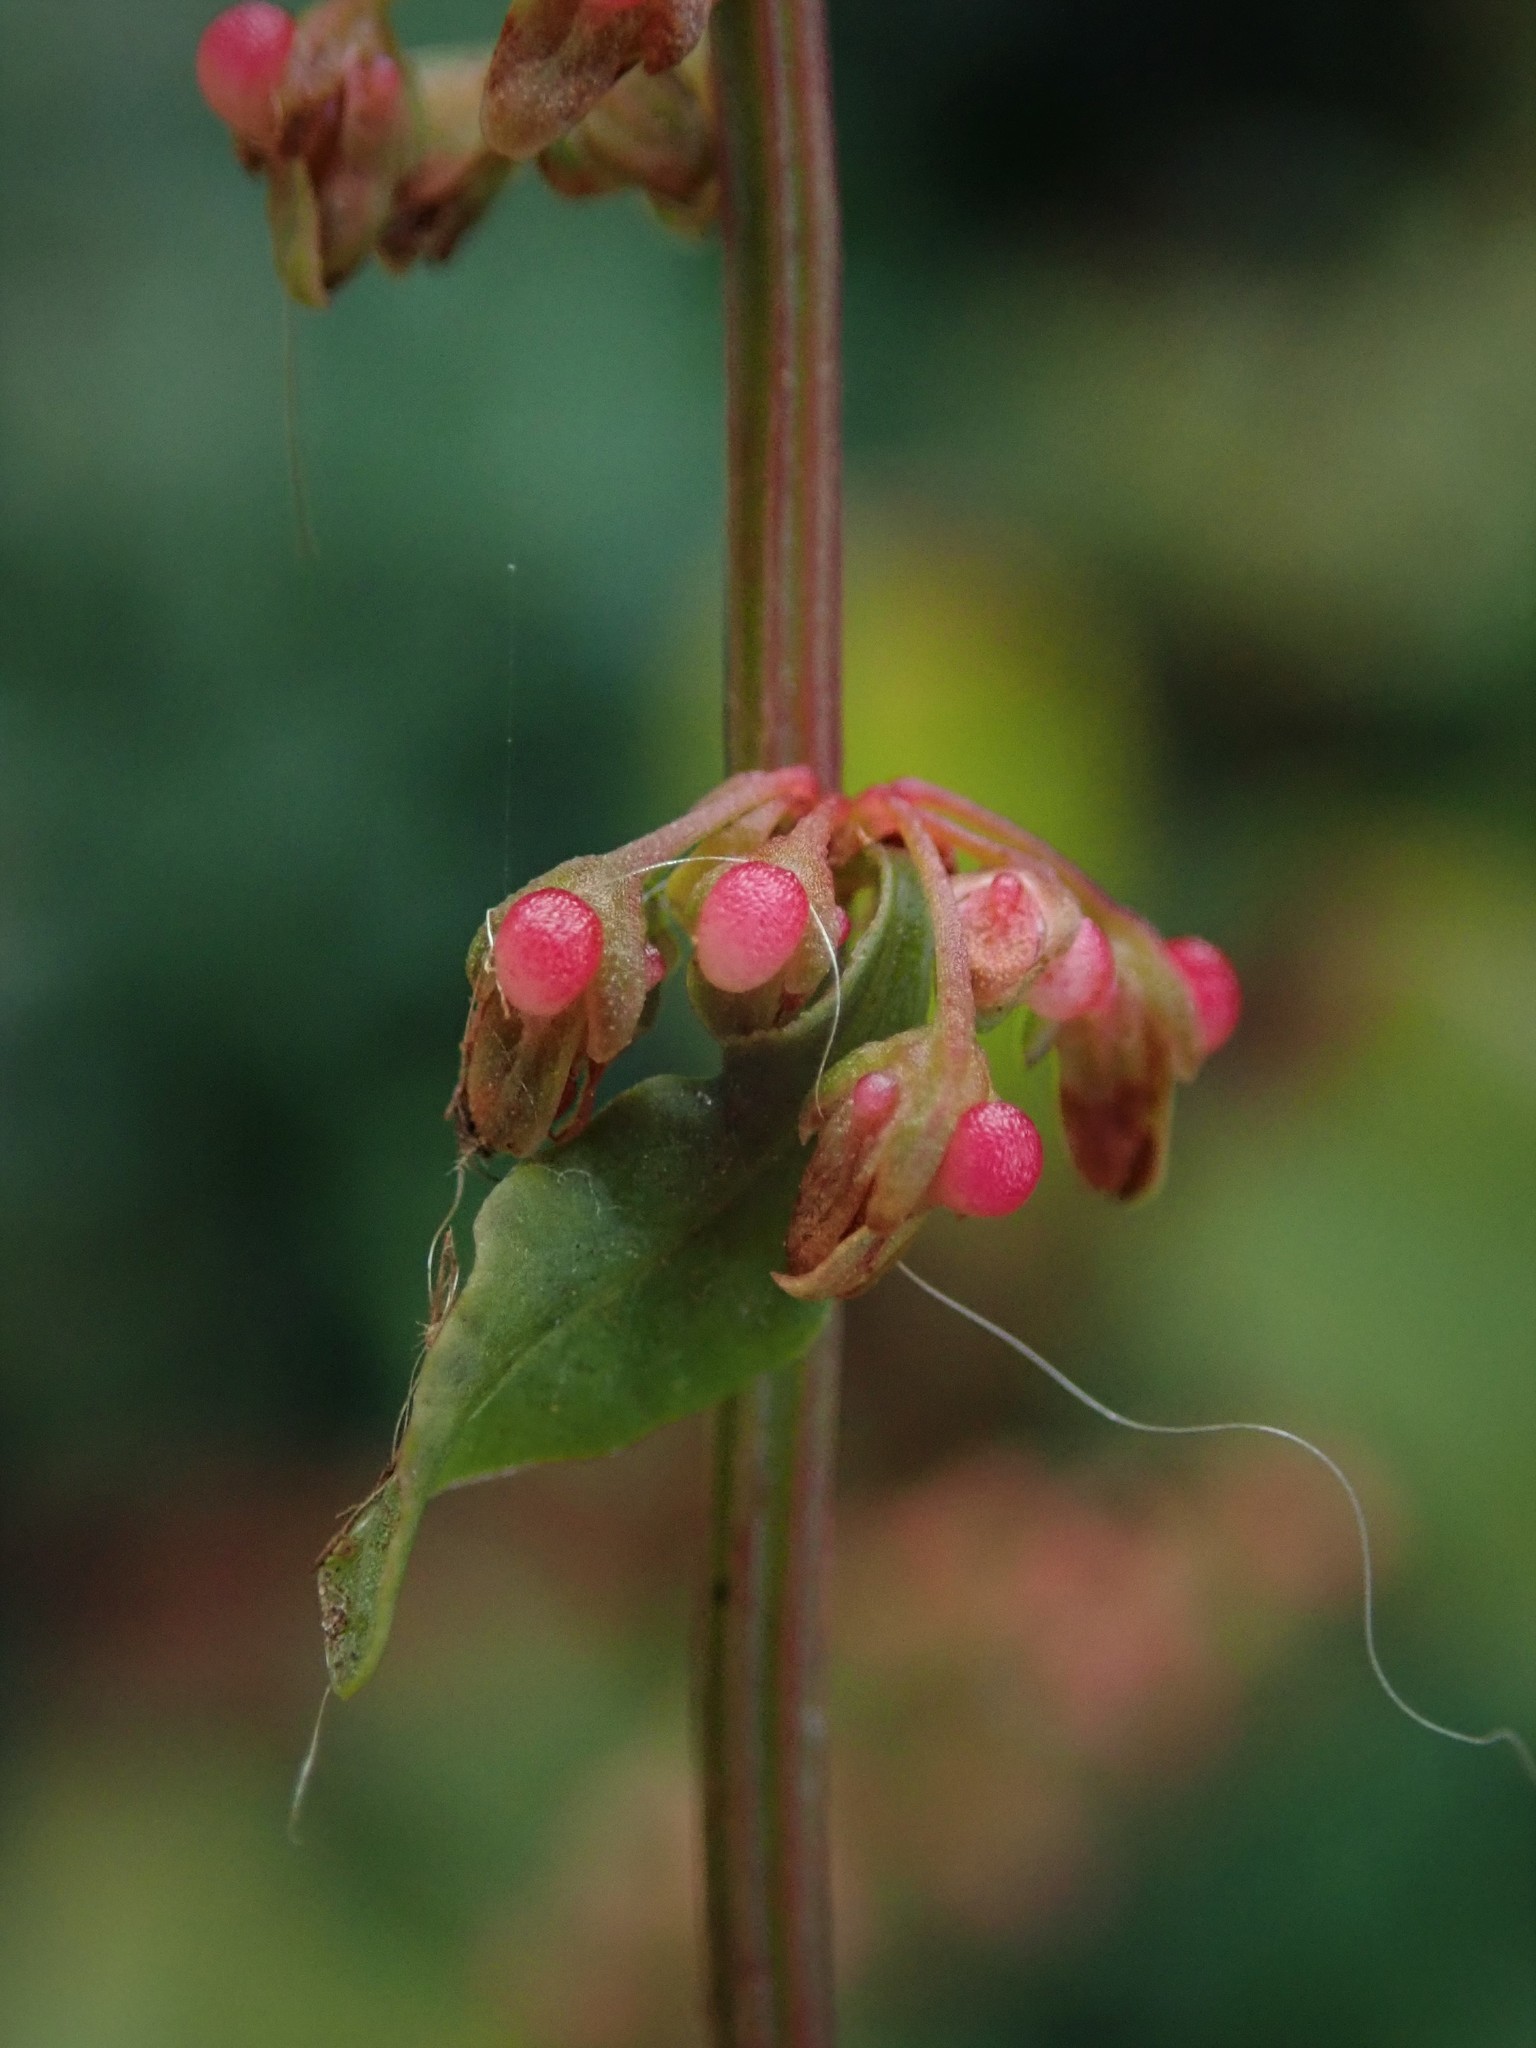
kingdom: Plantae
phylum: Tracheophyta
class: Magnoliopsida
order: Caryophyllales
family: Polygonaceae
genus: Rumex
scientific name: Rumex sanguineus
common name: Wood dock
